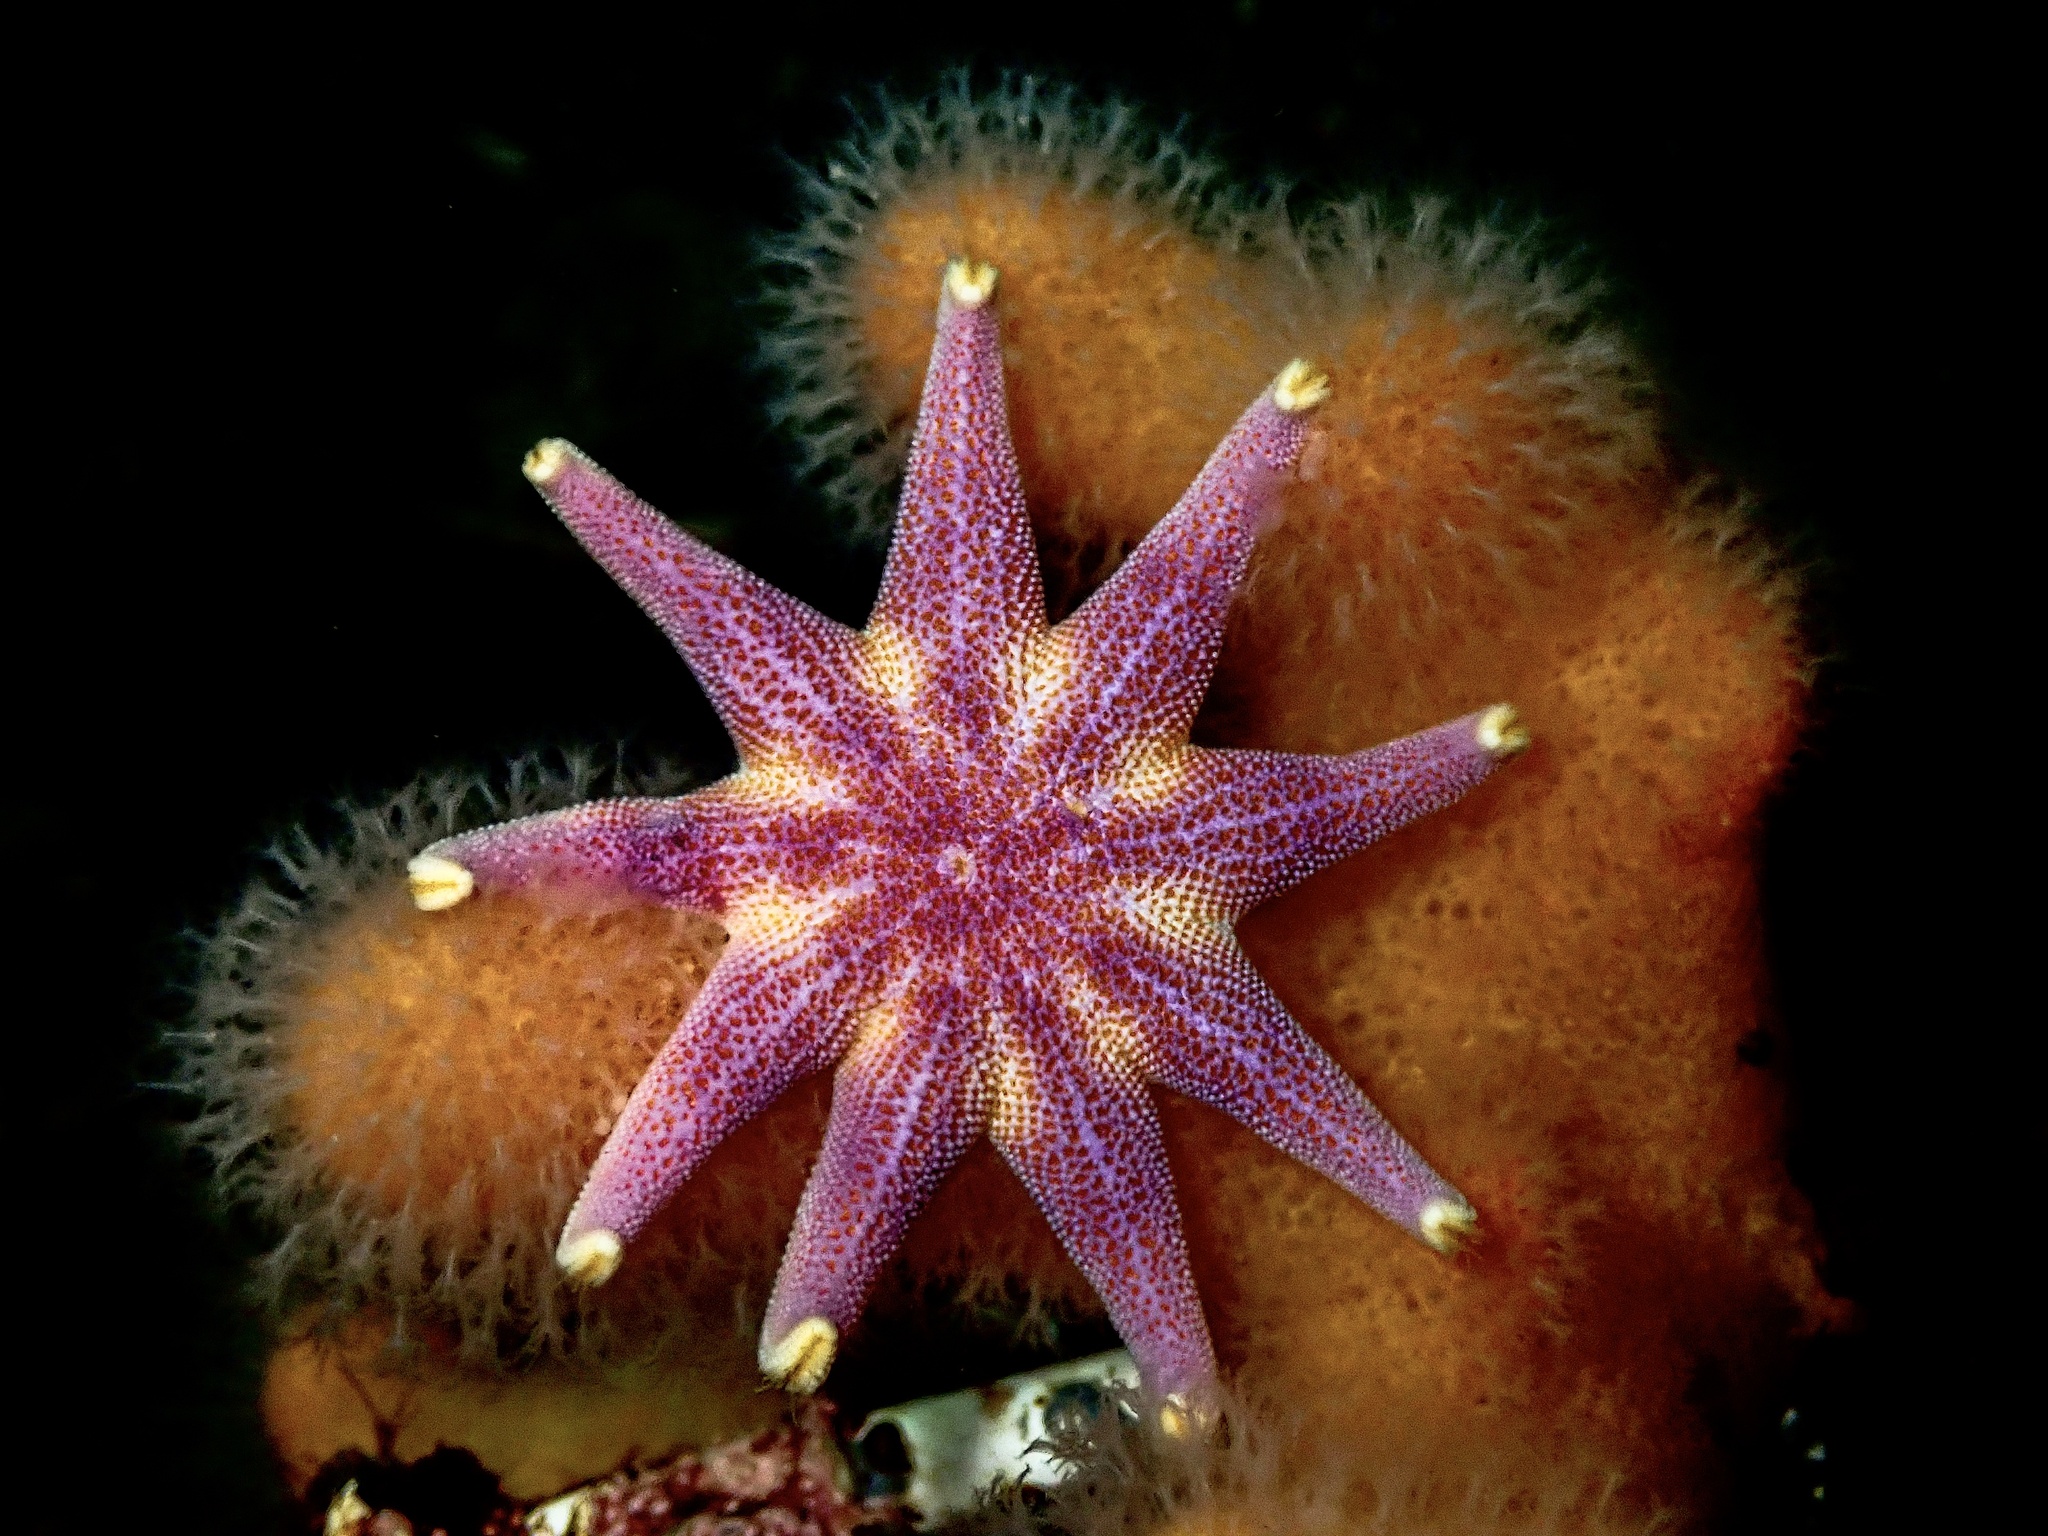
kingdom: Animalia
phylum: Echinodermata
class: Asteroidea
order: Valvatida
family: Solasteridae
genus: Solaster
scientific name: Solaster endeca
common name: Purple sun star
